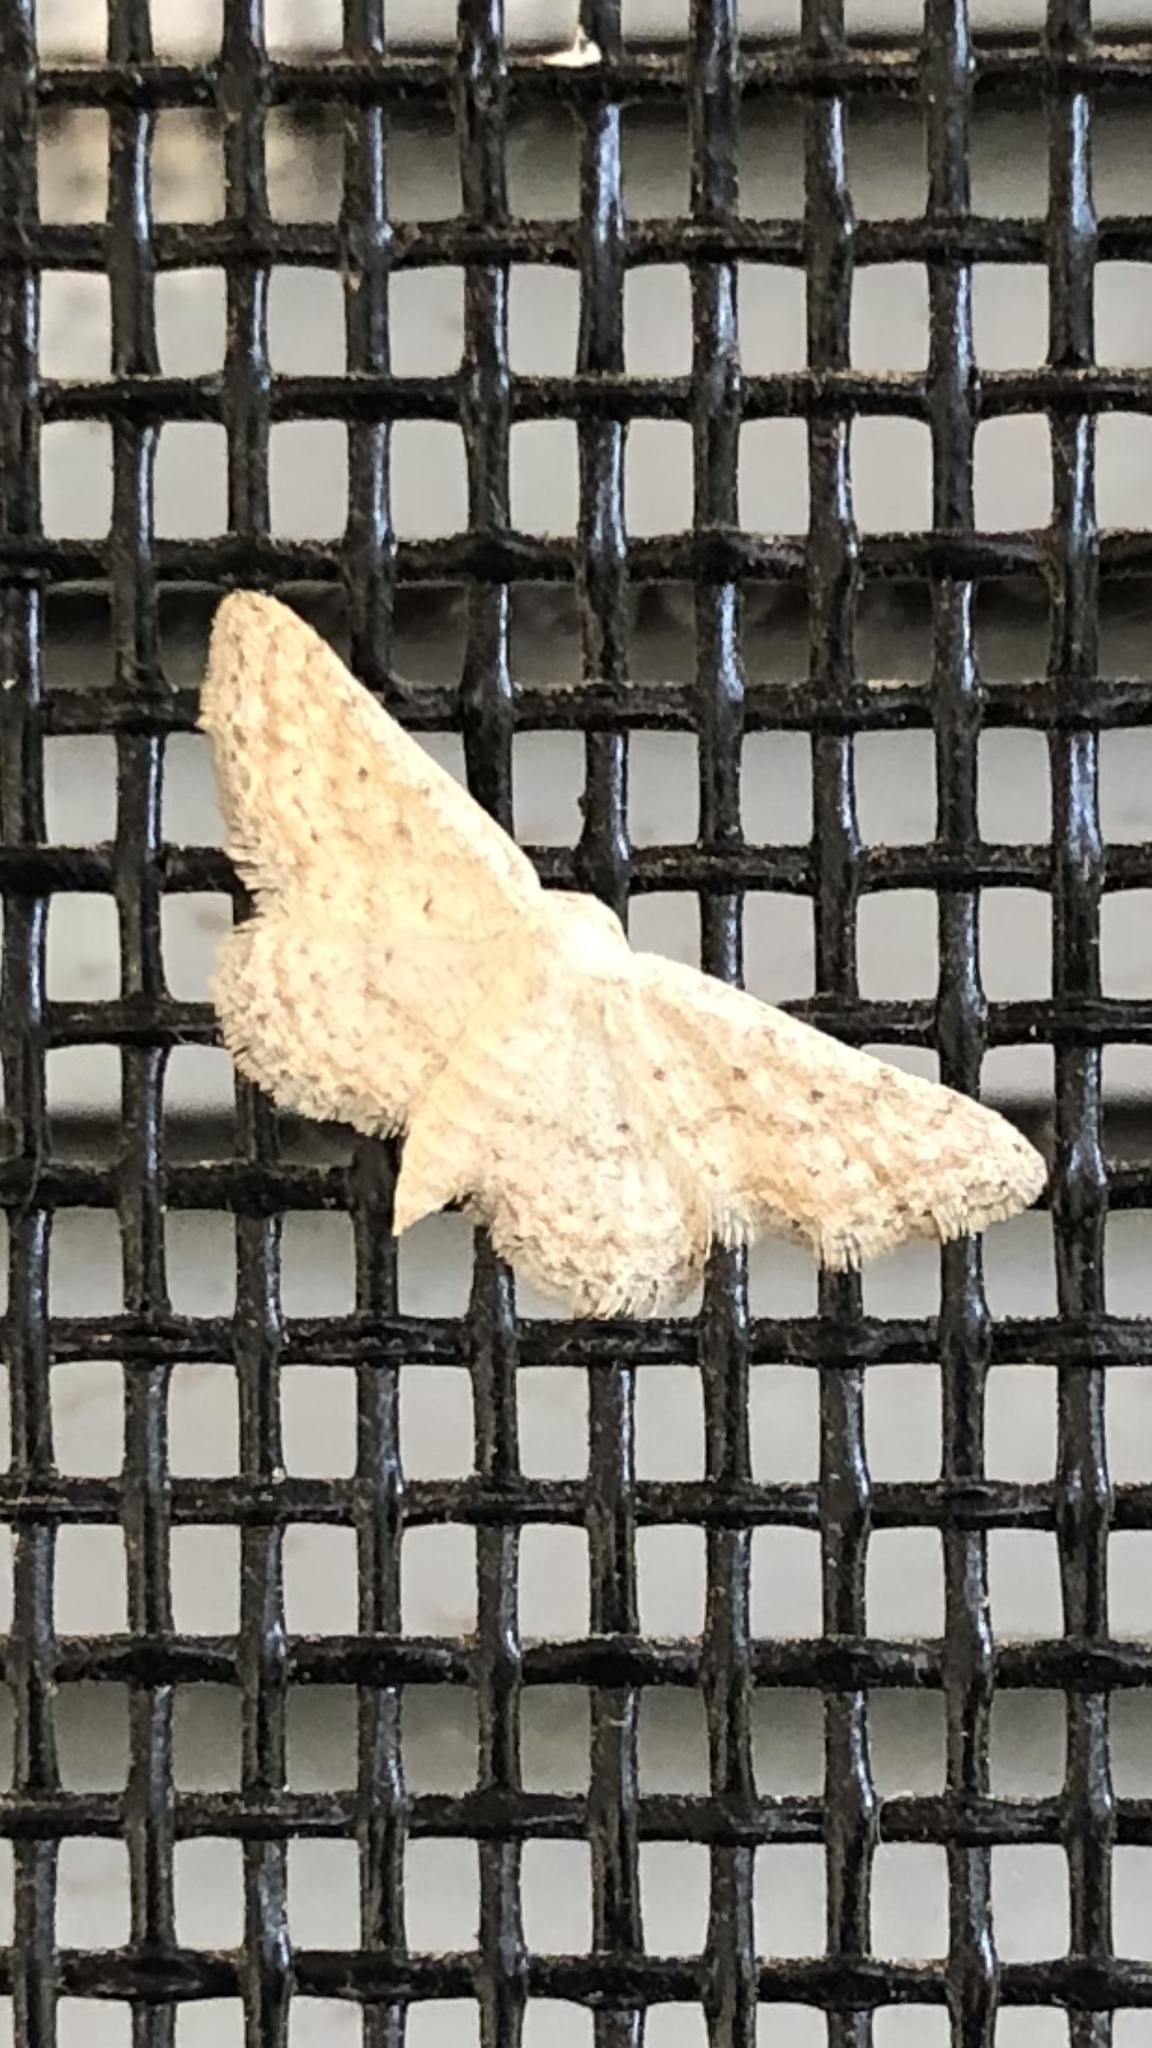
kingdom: Animalia
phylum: Arthropoda
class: Insecta
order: Lepidoptera
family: Geometridae
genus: Lobocleta
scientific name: Lobocleta ossularia
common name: Drab brown wave
